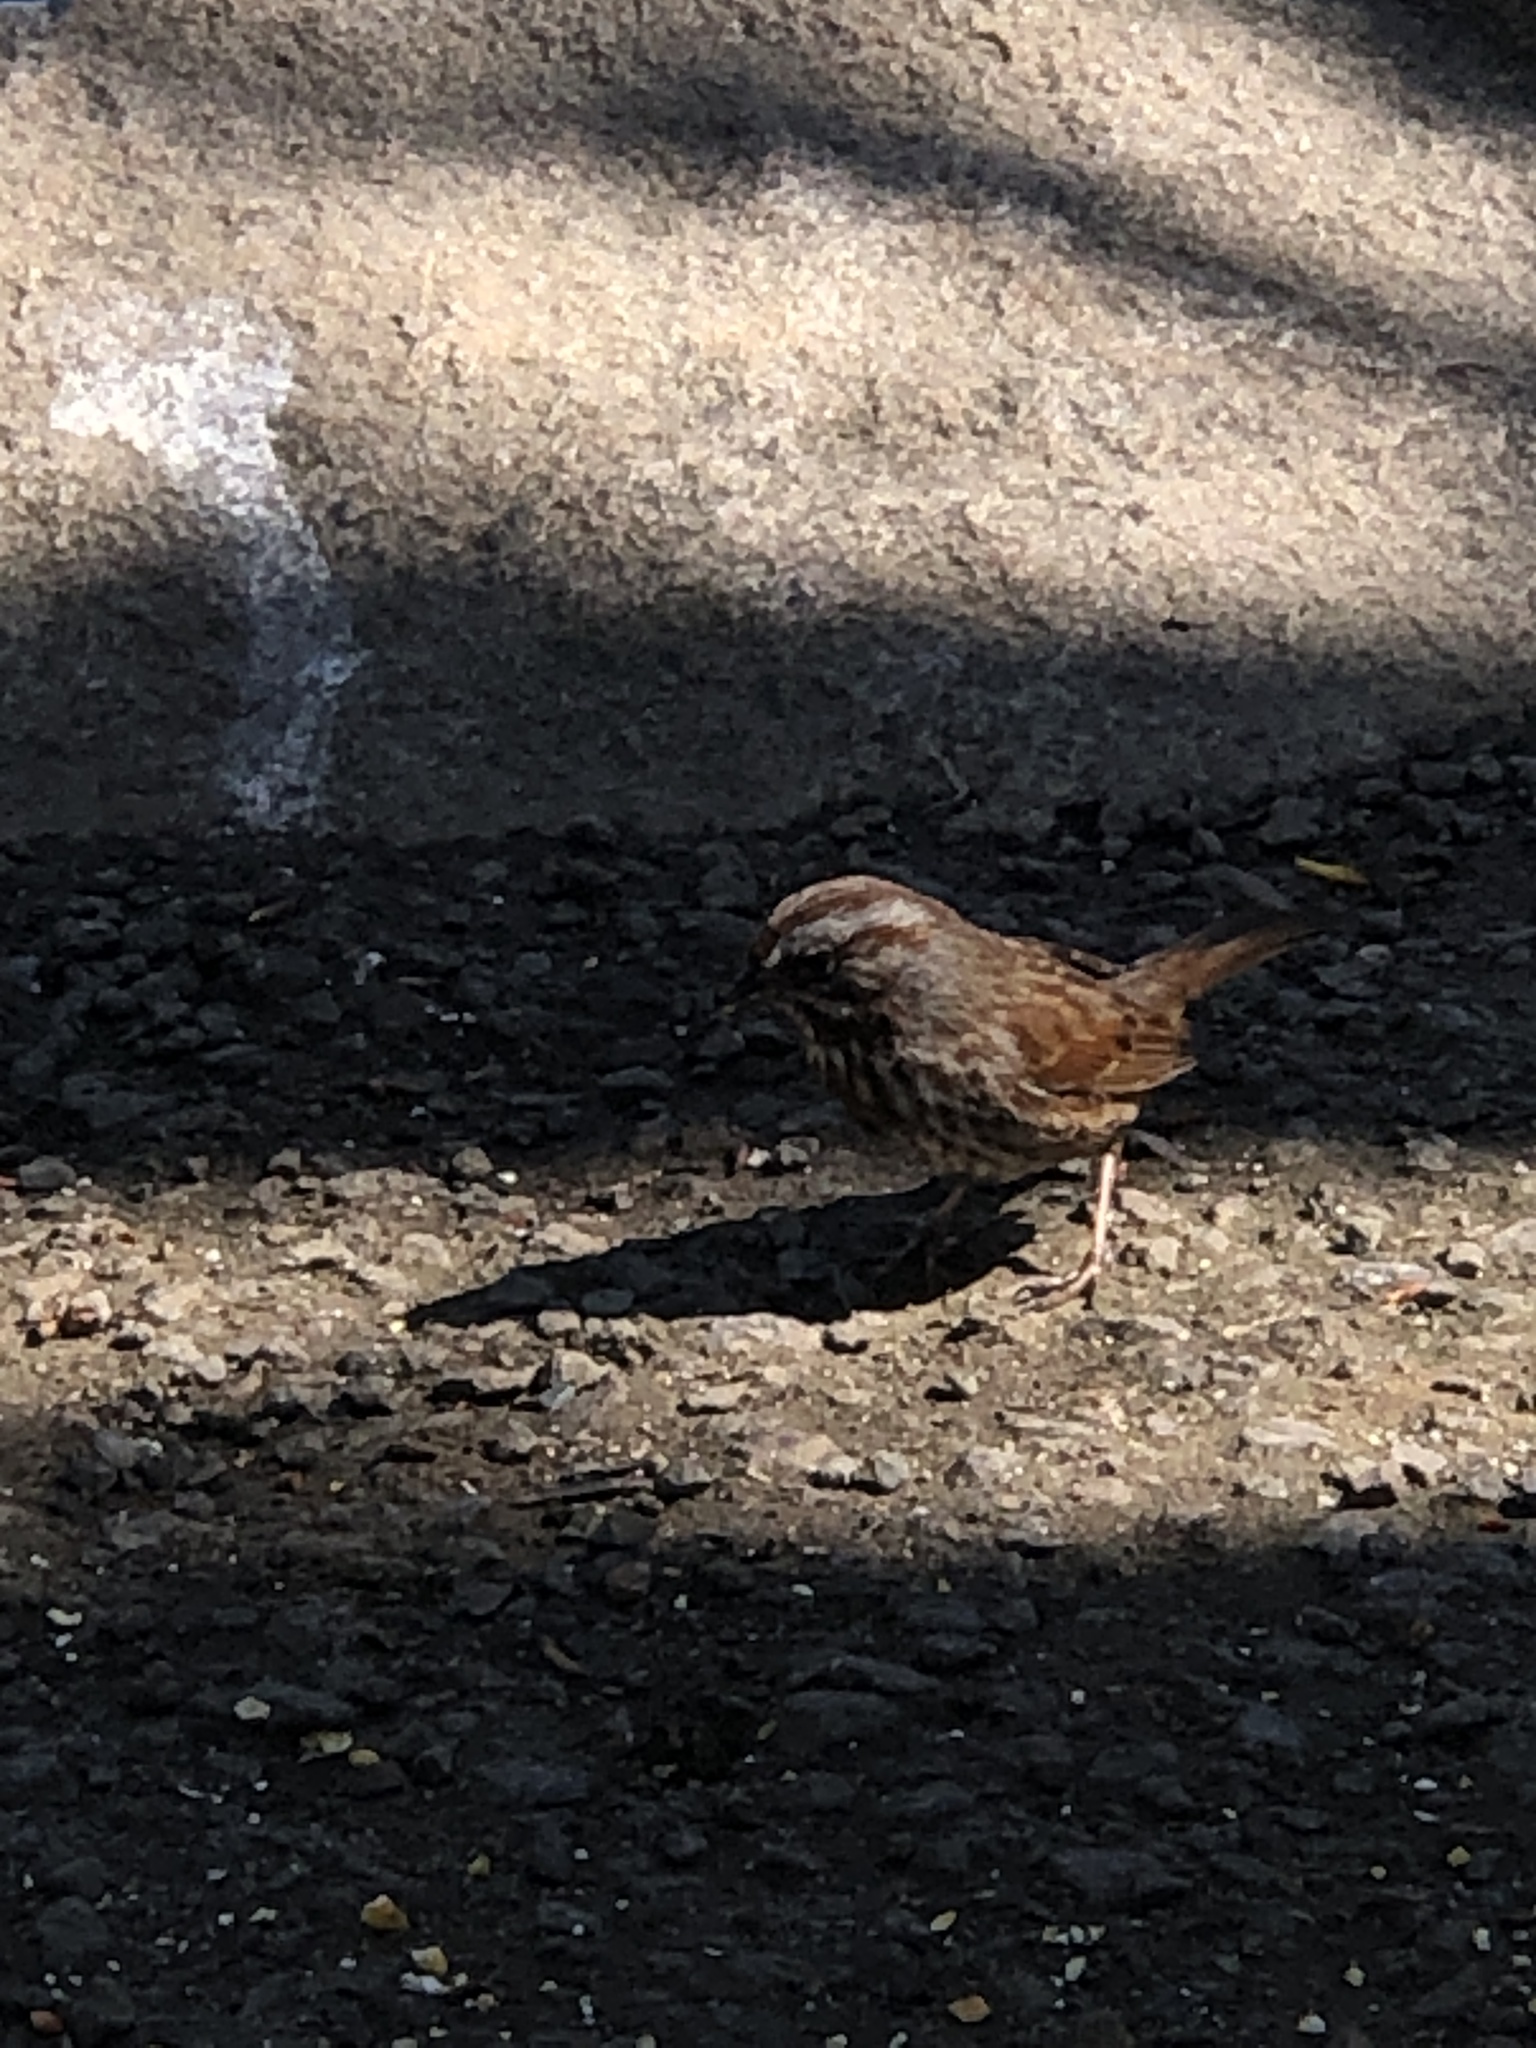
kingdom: Animalia
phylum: Chordata
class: Aves
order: Passeriformes
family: Passerellidae
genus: Melospiza
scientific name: Melospiza melodia
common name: Song sparrow
